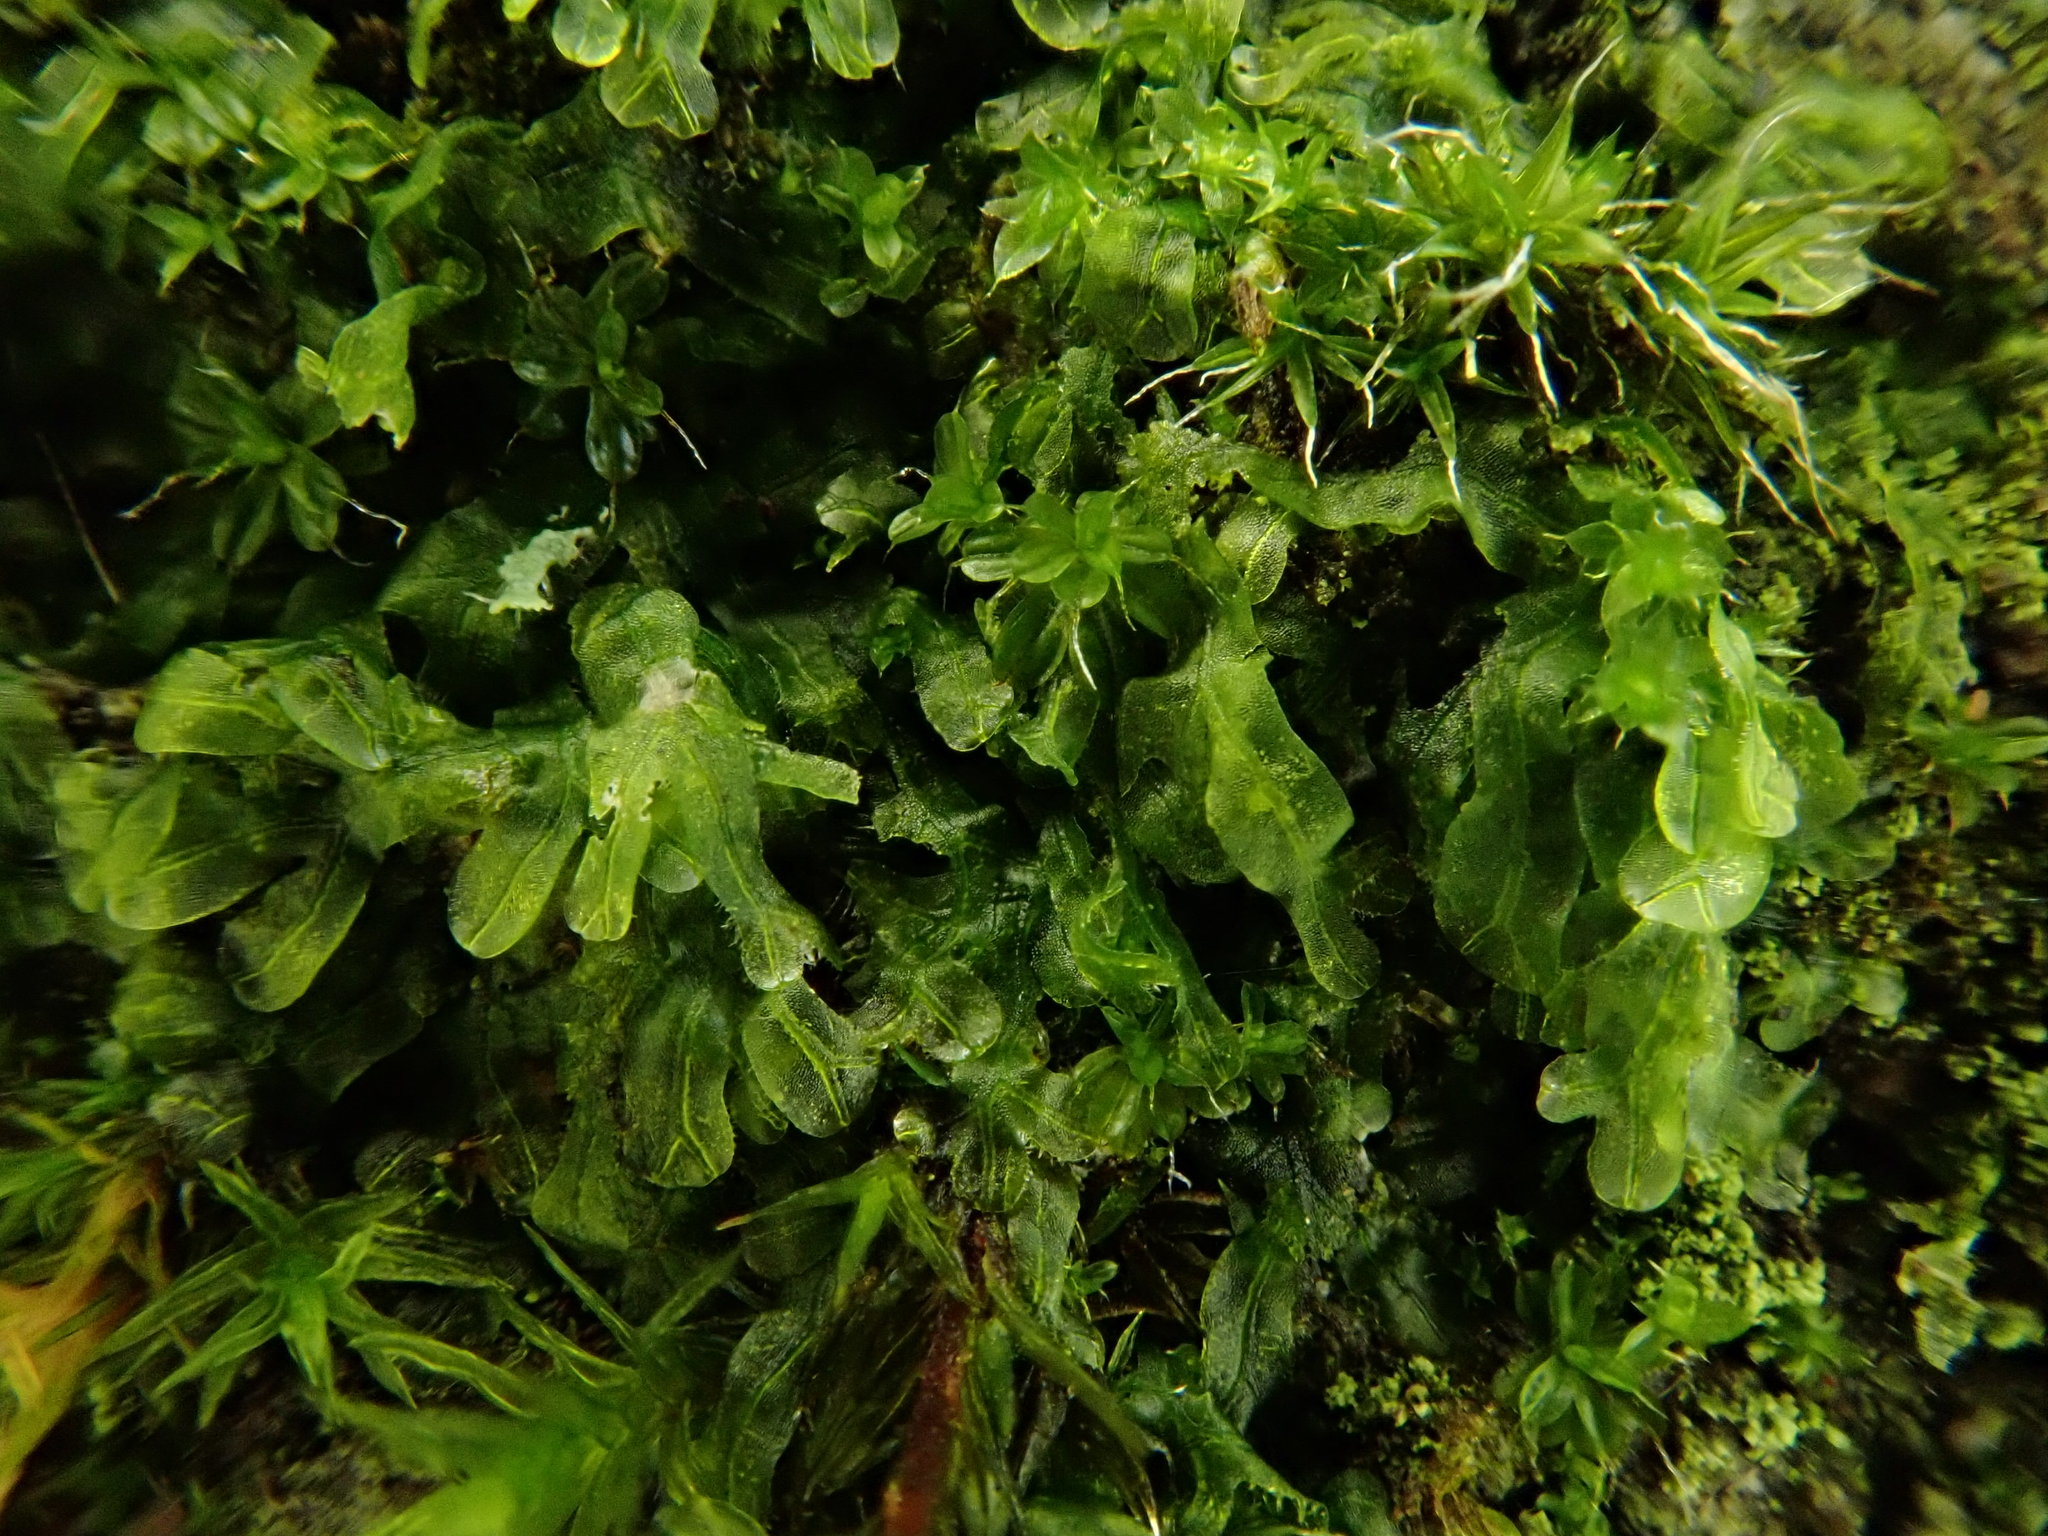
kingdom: Plantae
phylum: Marchantiophyta
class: Jungermanniopsida
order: Metzgeriales
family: Metzgeriaceae
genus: Metzgeria
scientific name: Metzgeria furcata
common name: Forked veilwort
